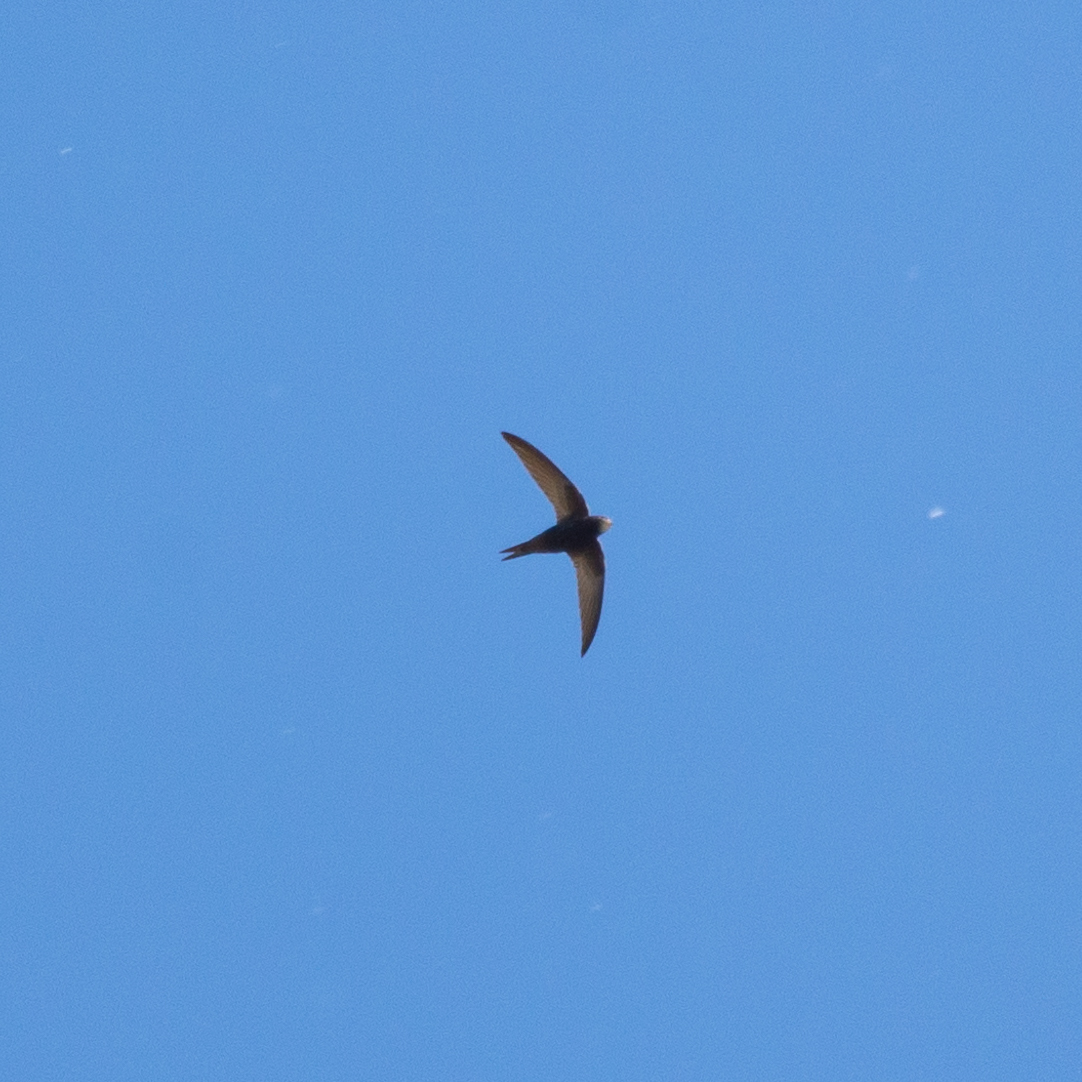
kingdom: Animalia
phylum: Chordata
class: Aves
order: Apodiformes
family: Apodidae
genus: Apus
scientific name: Apus apus
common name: Common swift
